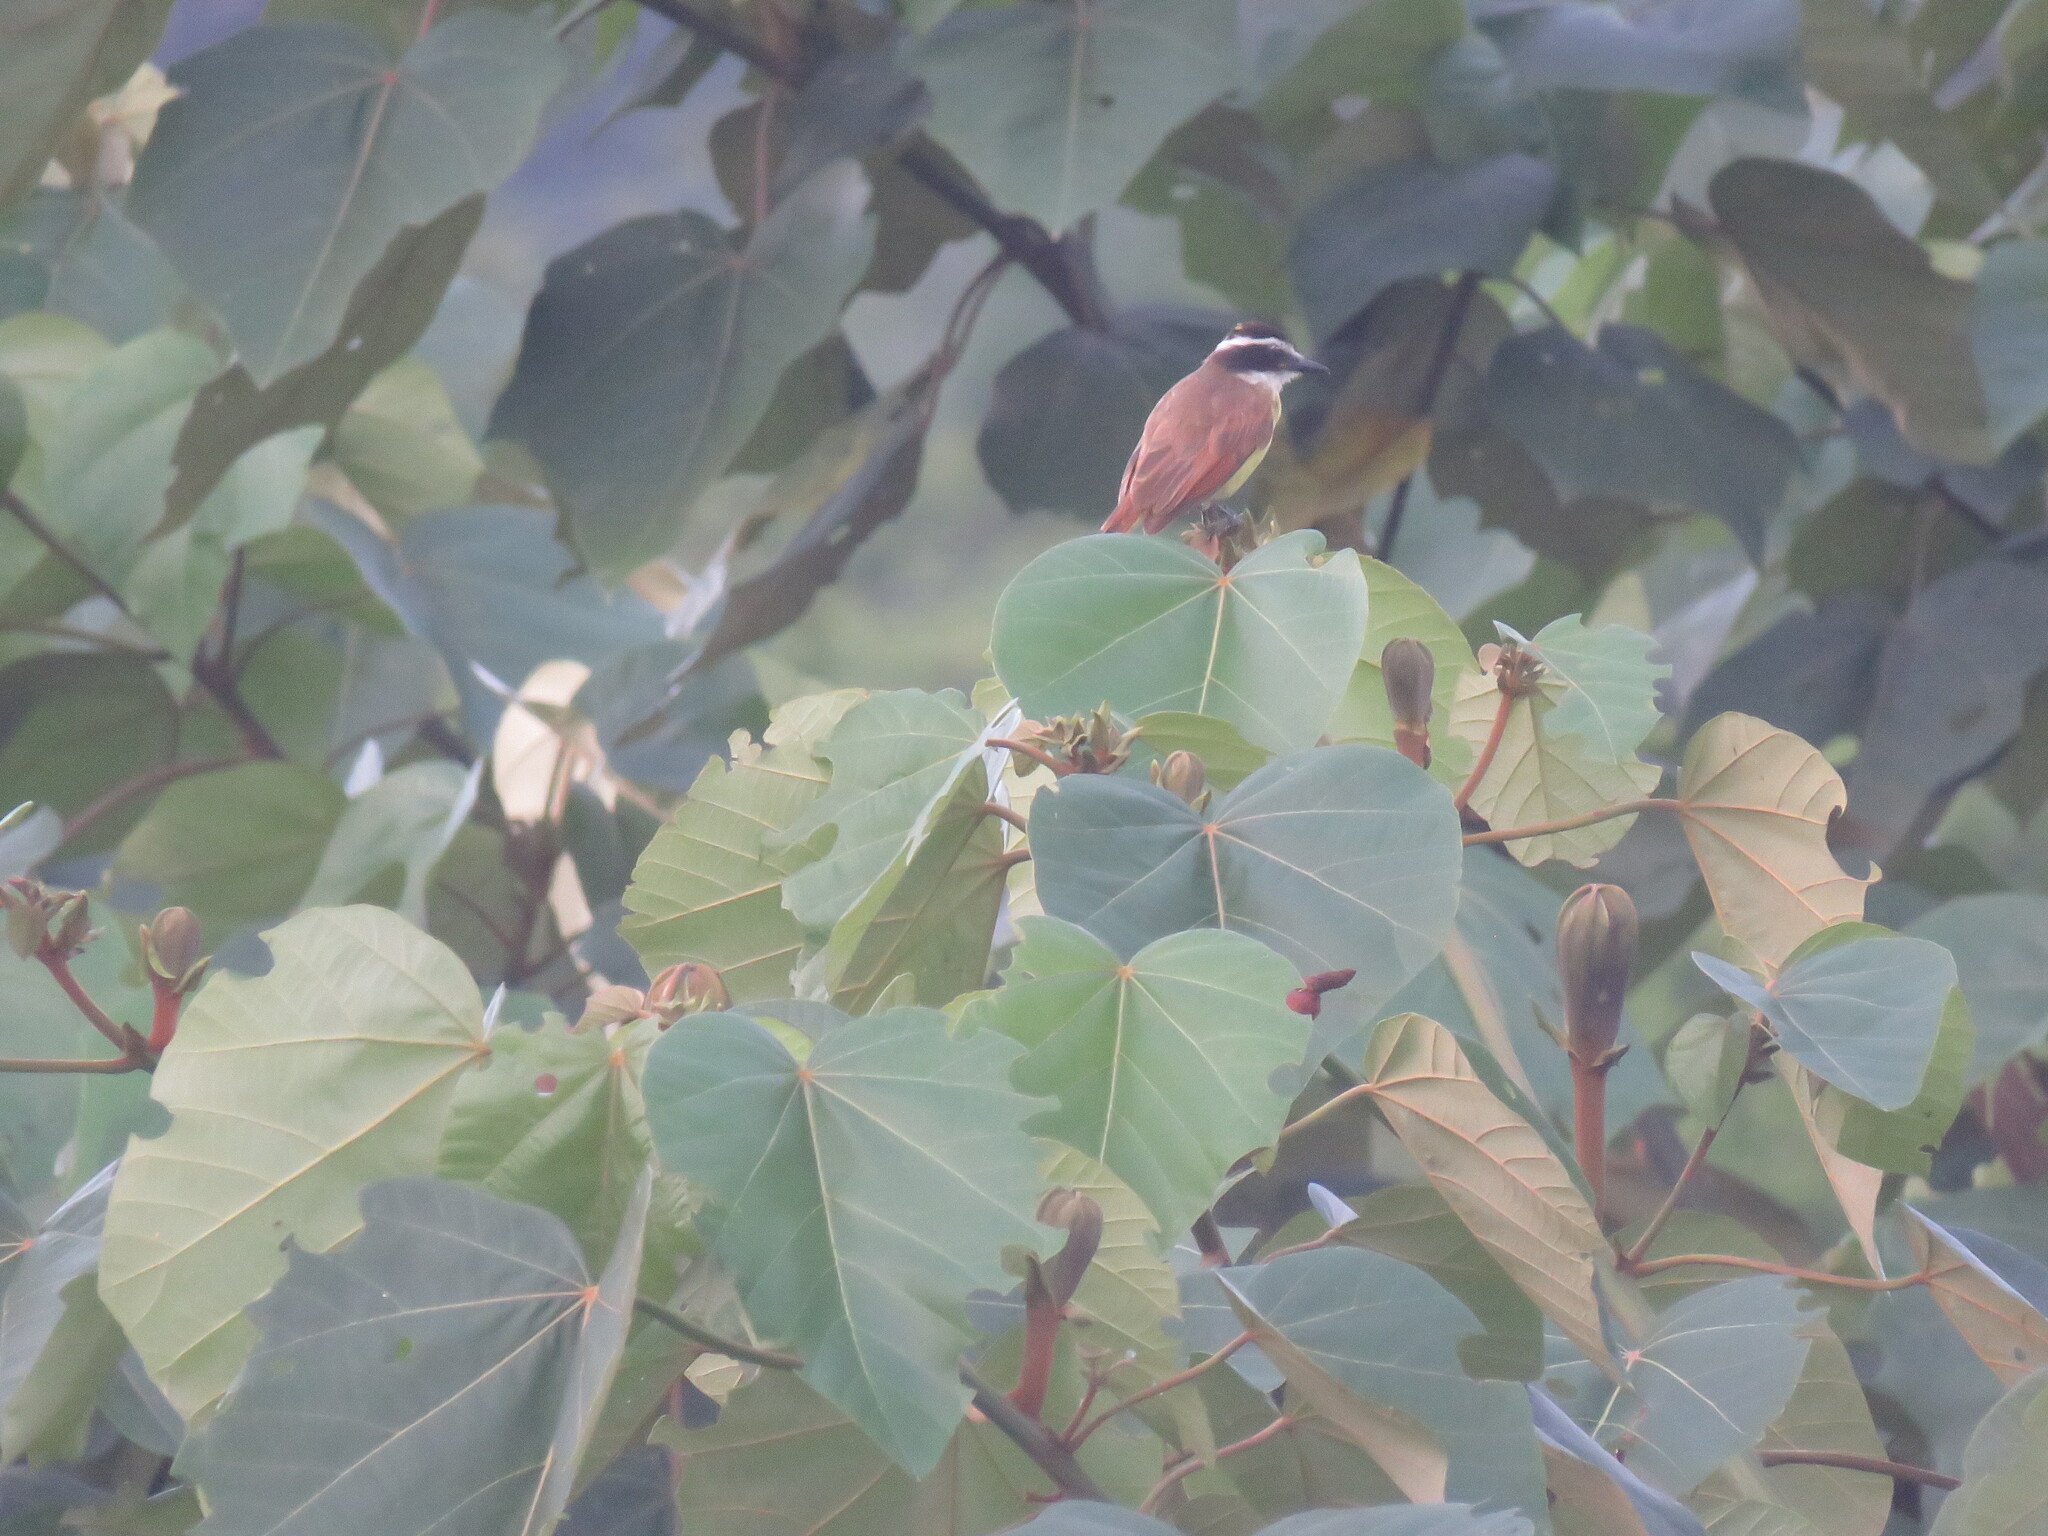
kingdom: Animalia
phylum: Chordata
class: Aves
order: Passeriformes
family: Tyrannidae
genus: Pitangus
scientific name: Pitangus sulphuratus
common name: Great kiskadee
